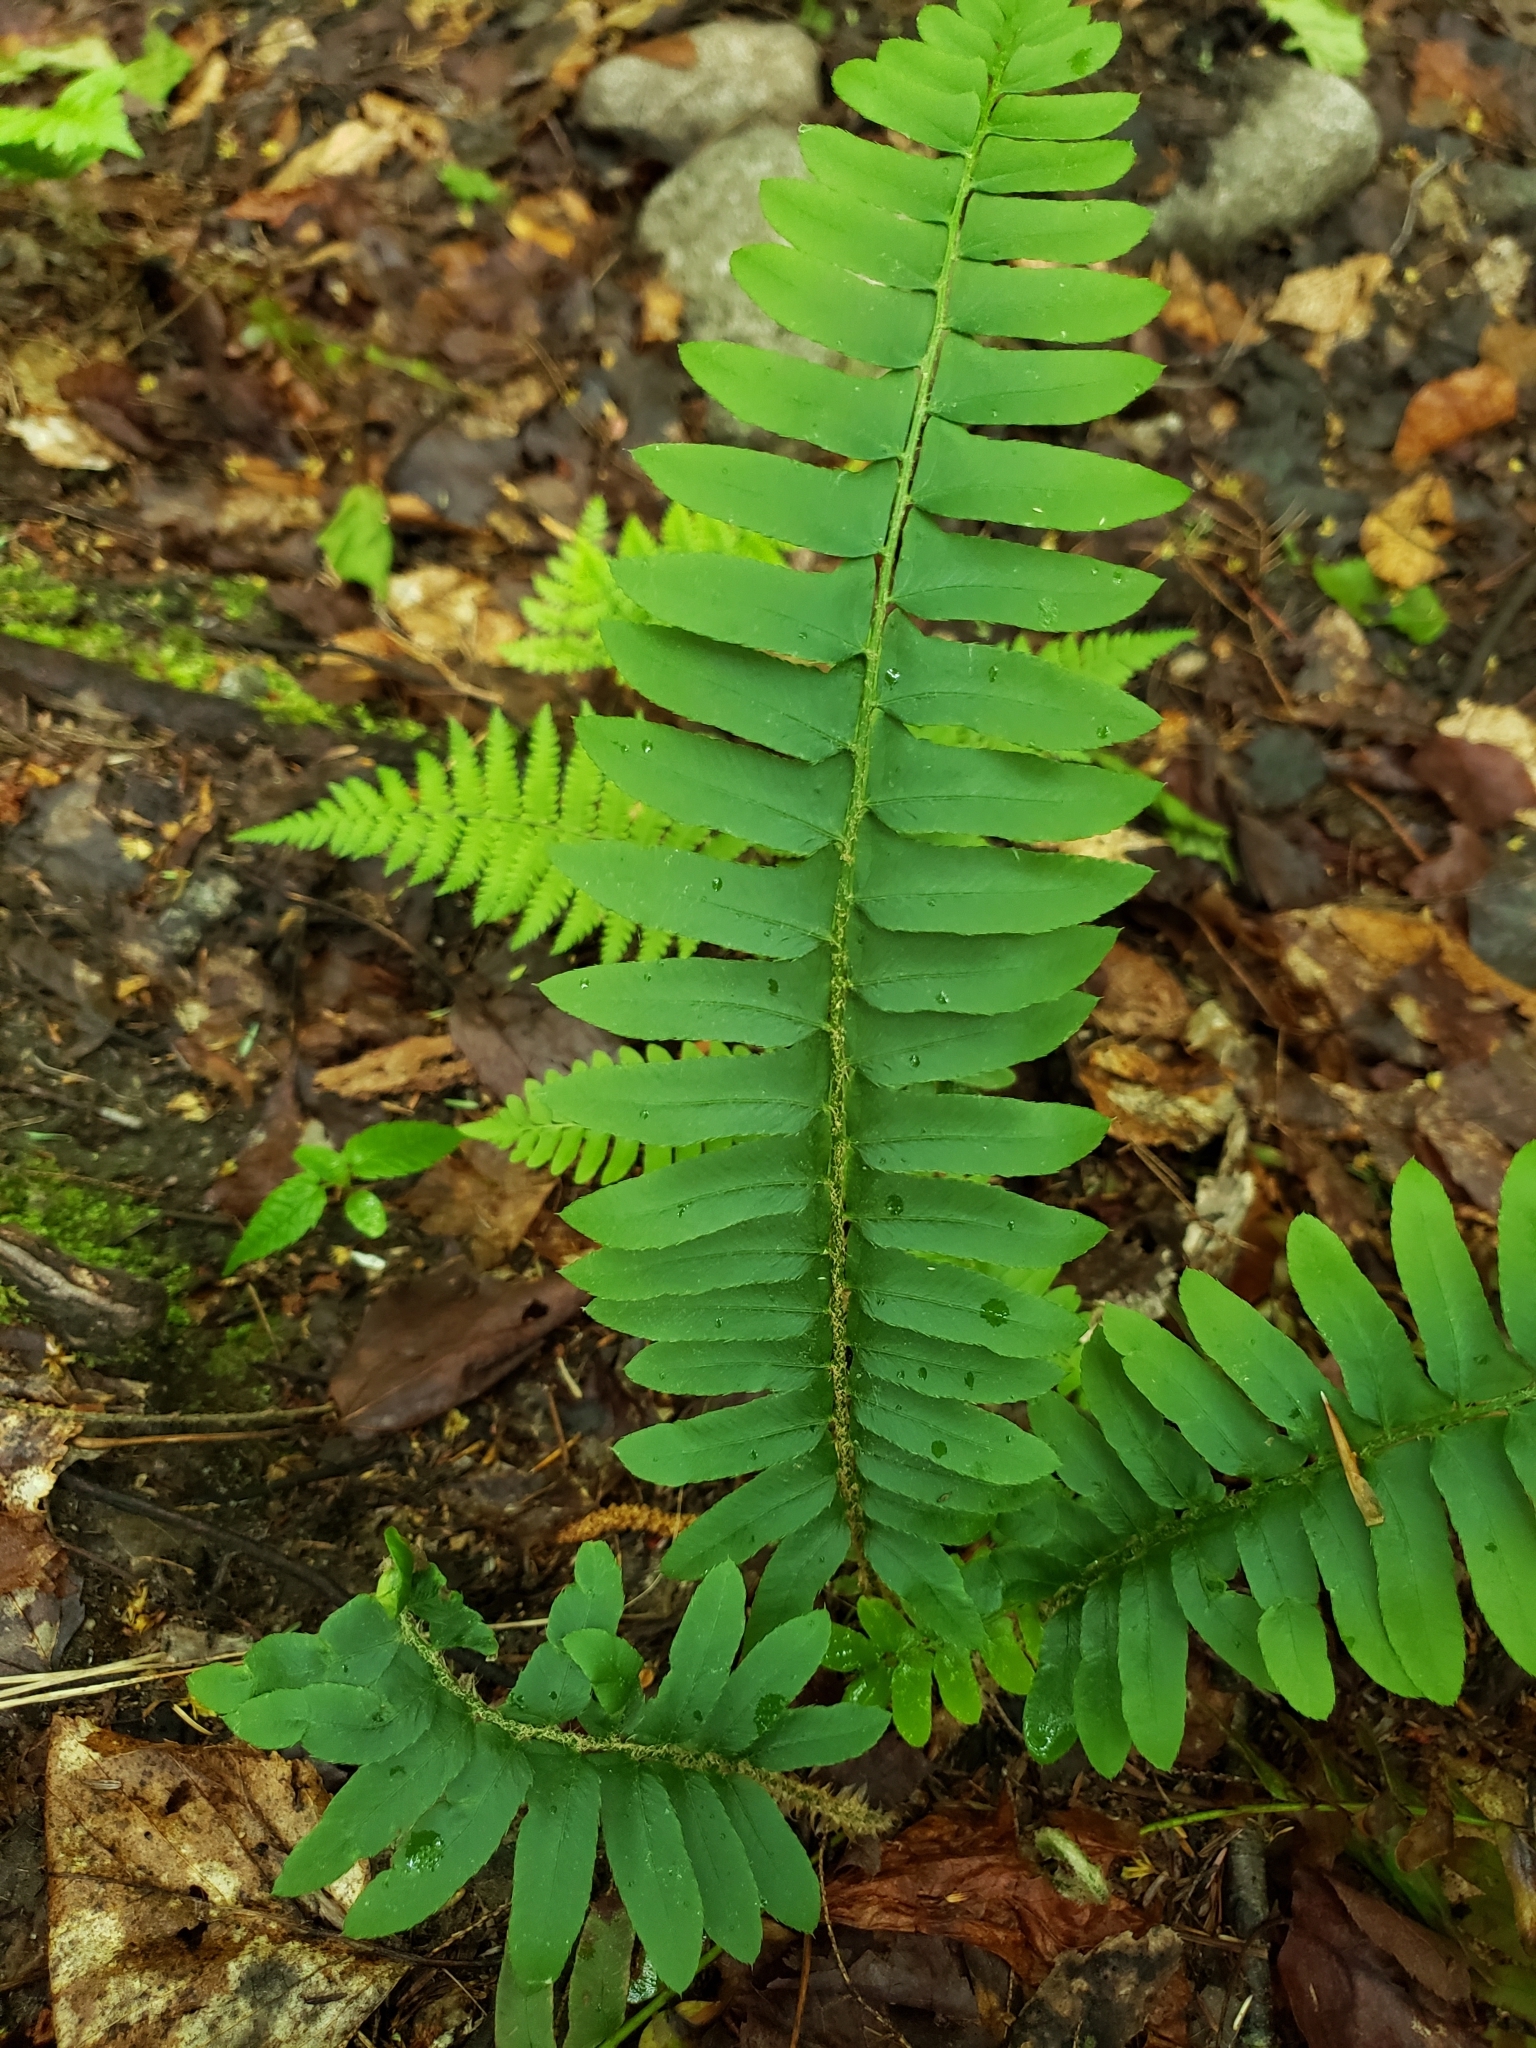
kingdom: Plantae
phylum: Tracheophyta
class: Polypodiopsida
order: Polypodiales
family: Dryopteridaceae
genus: Polystichum
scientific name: Polystichum acrostichoides
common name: Christmas fern
